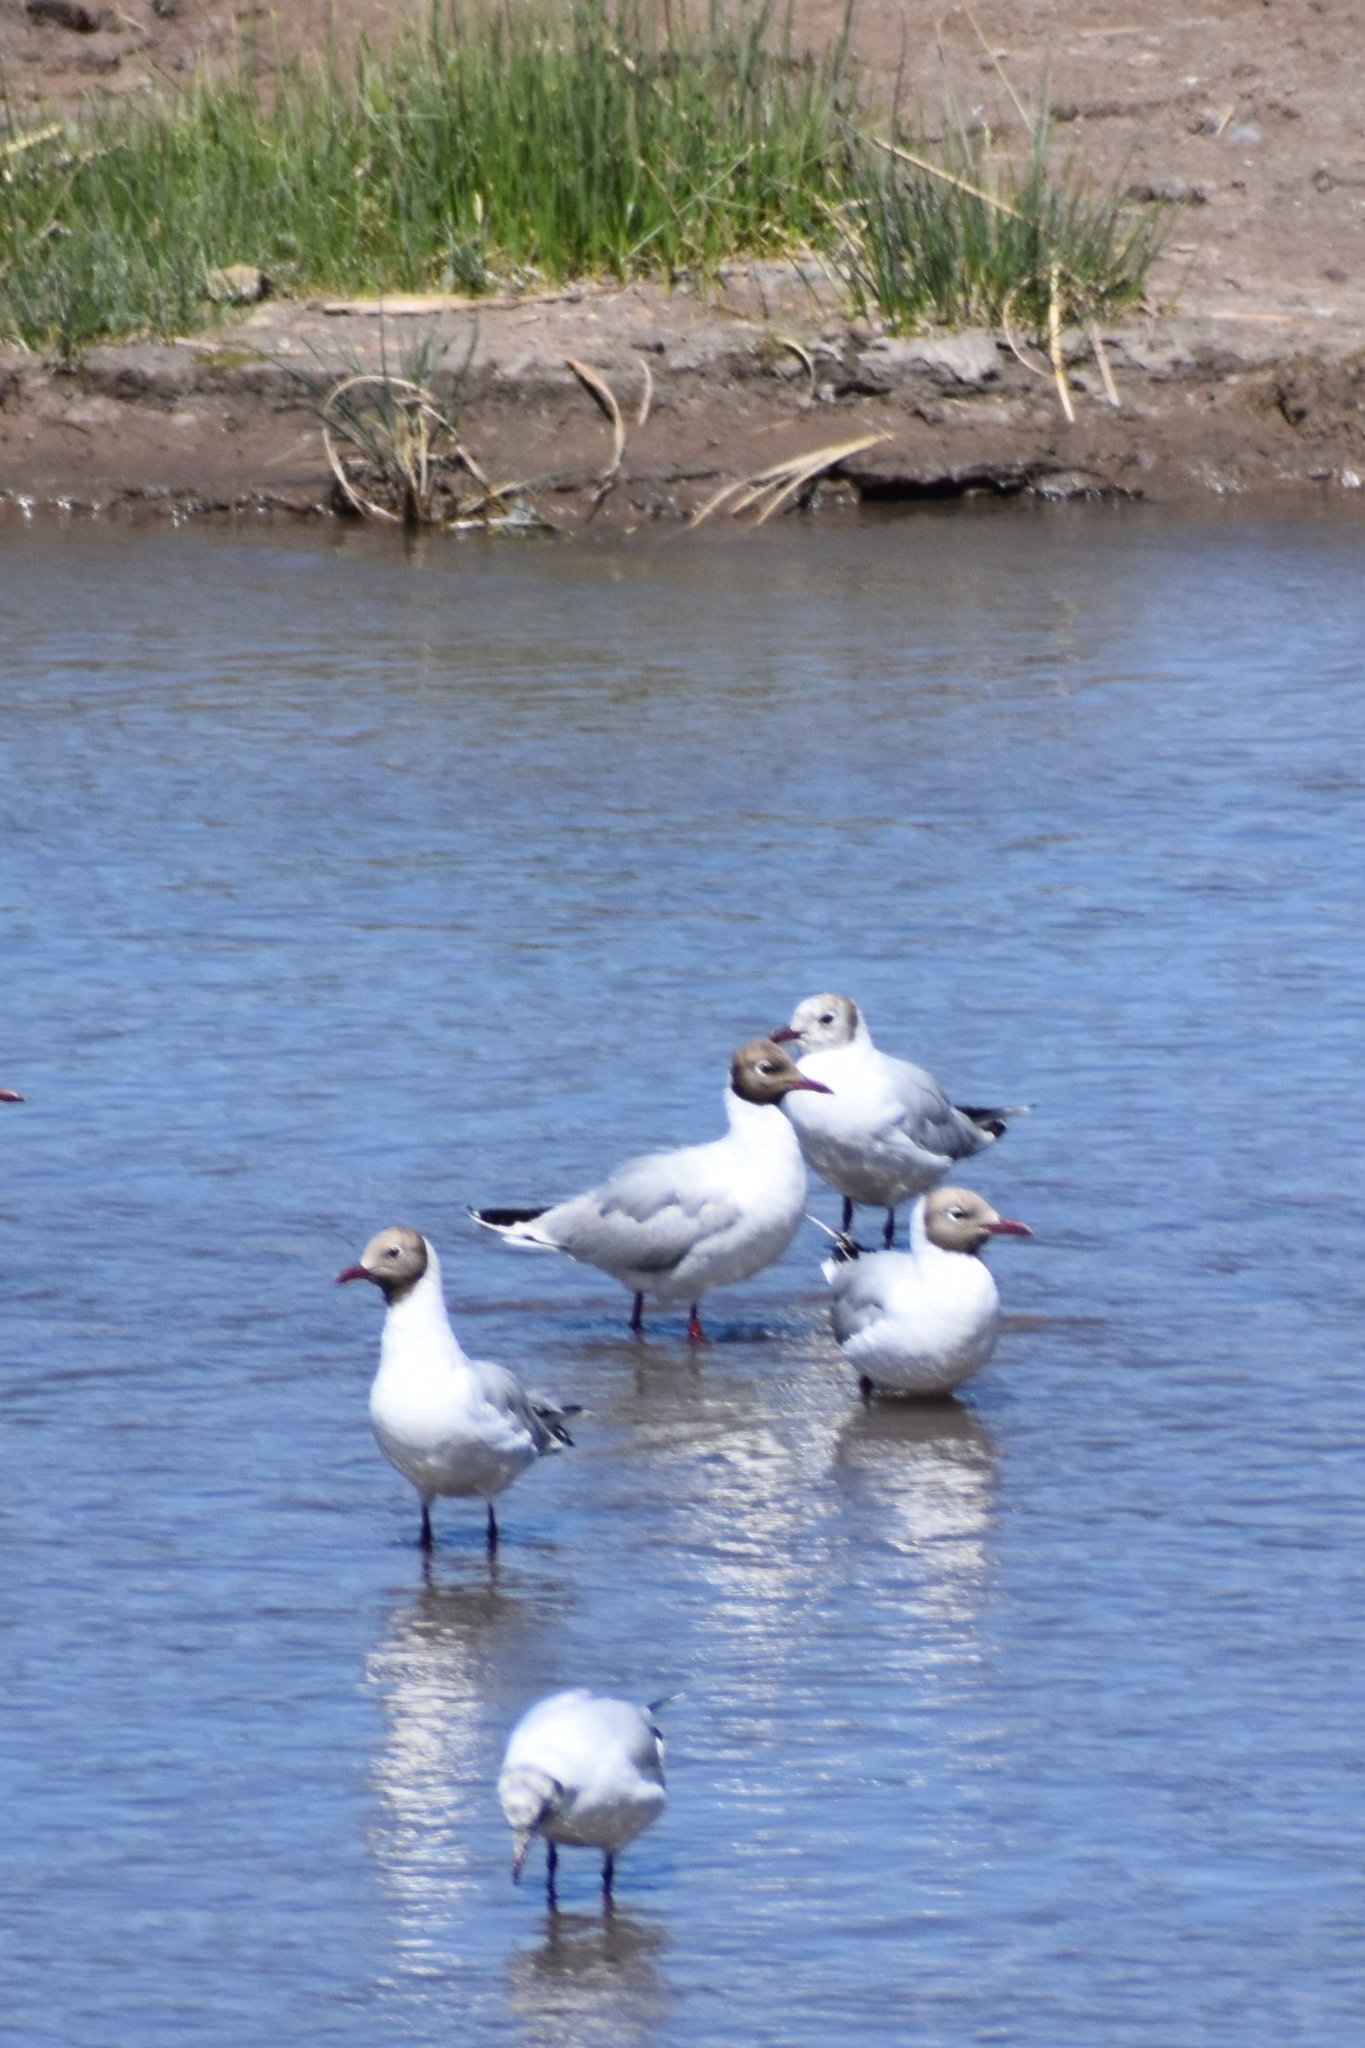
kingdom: Animalia
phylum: Chordata
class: Aves
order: Charadriiformes
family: Laridae
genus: Chroicocephalus
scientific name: Chroicocephalus maculipennis
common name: Brown-hooded gull
